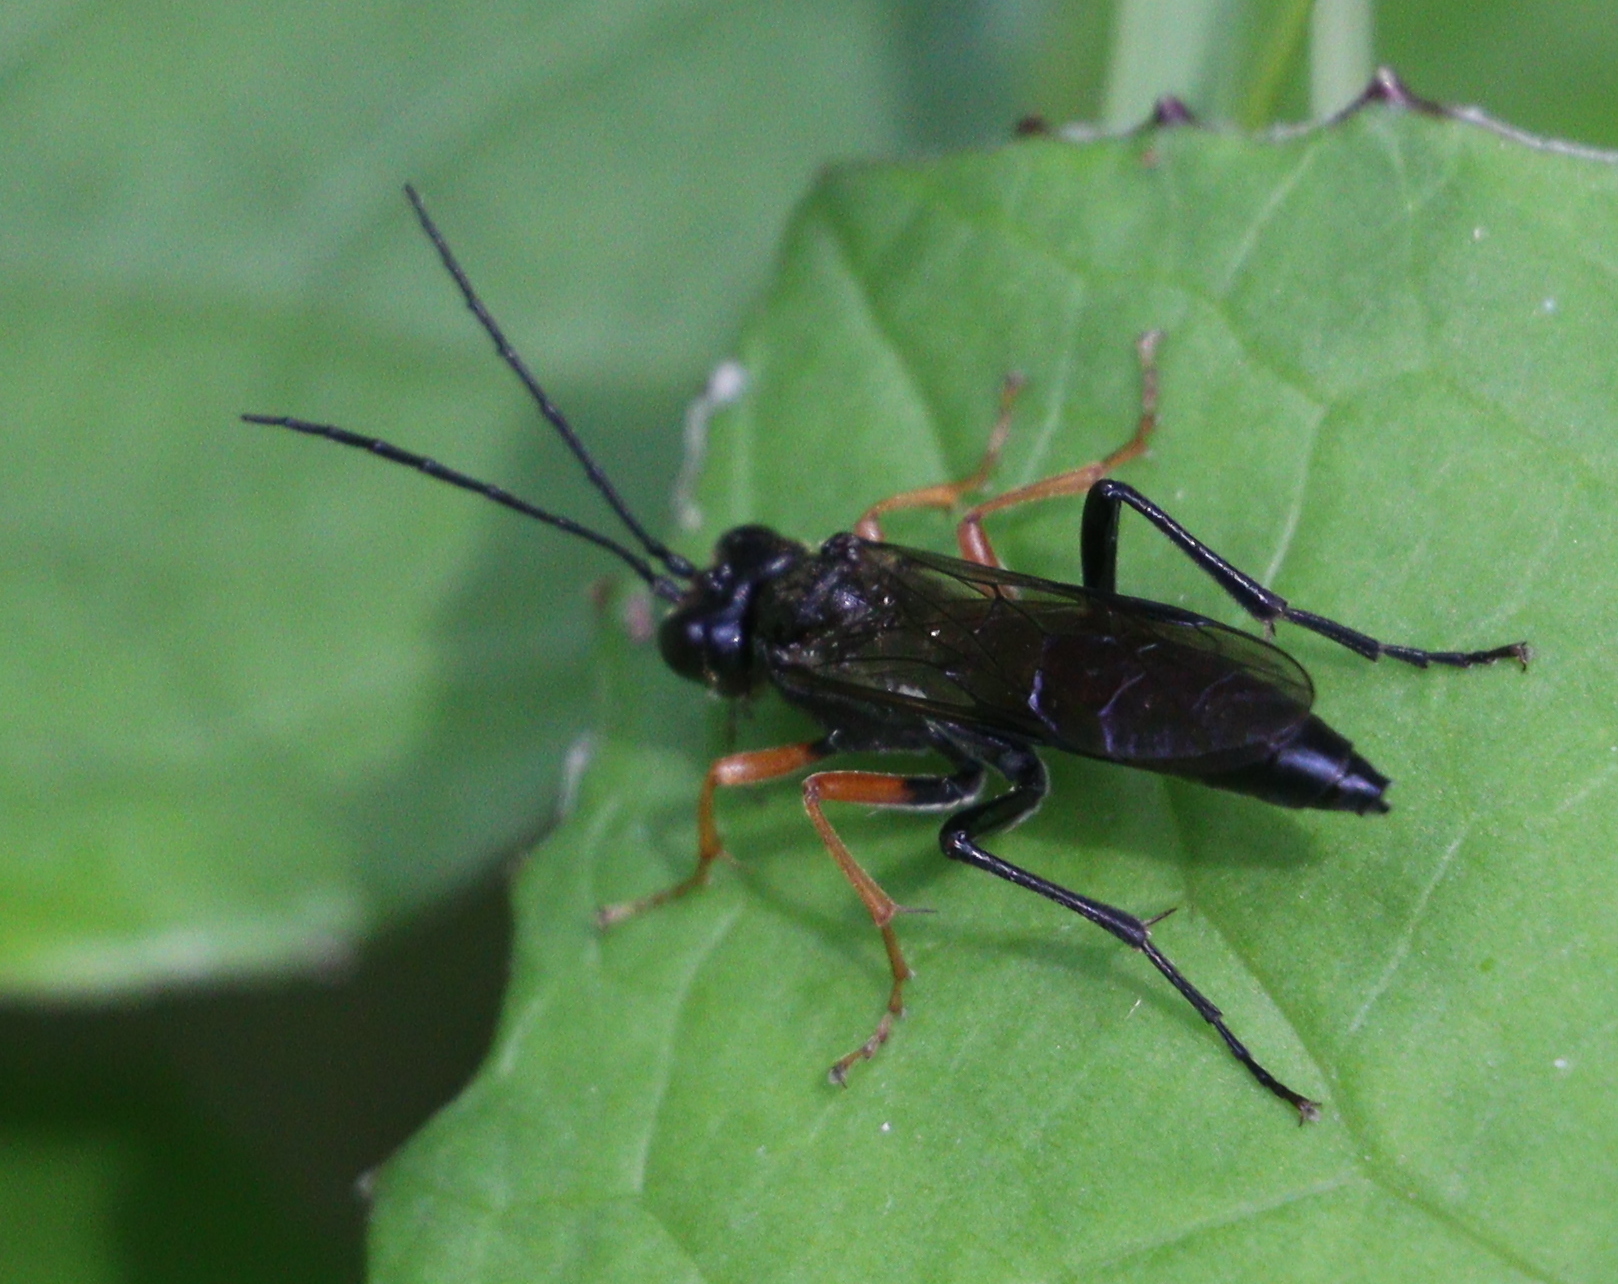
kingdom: Animalia
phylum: Arthropoda
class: Insecta
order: Hymenoptera
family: Tenthredinidae
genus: Tenthredo
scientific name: Tenthredo mandibularis
